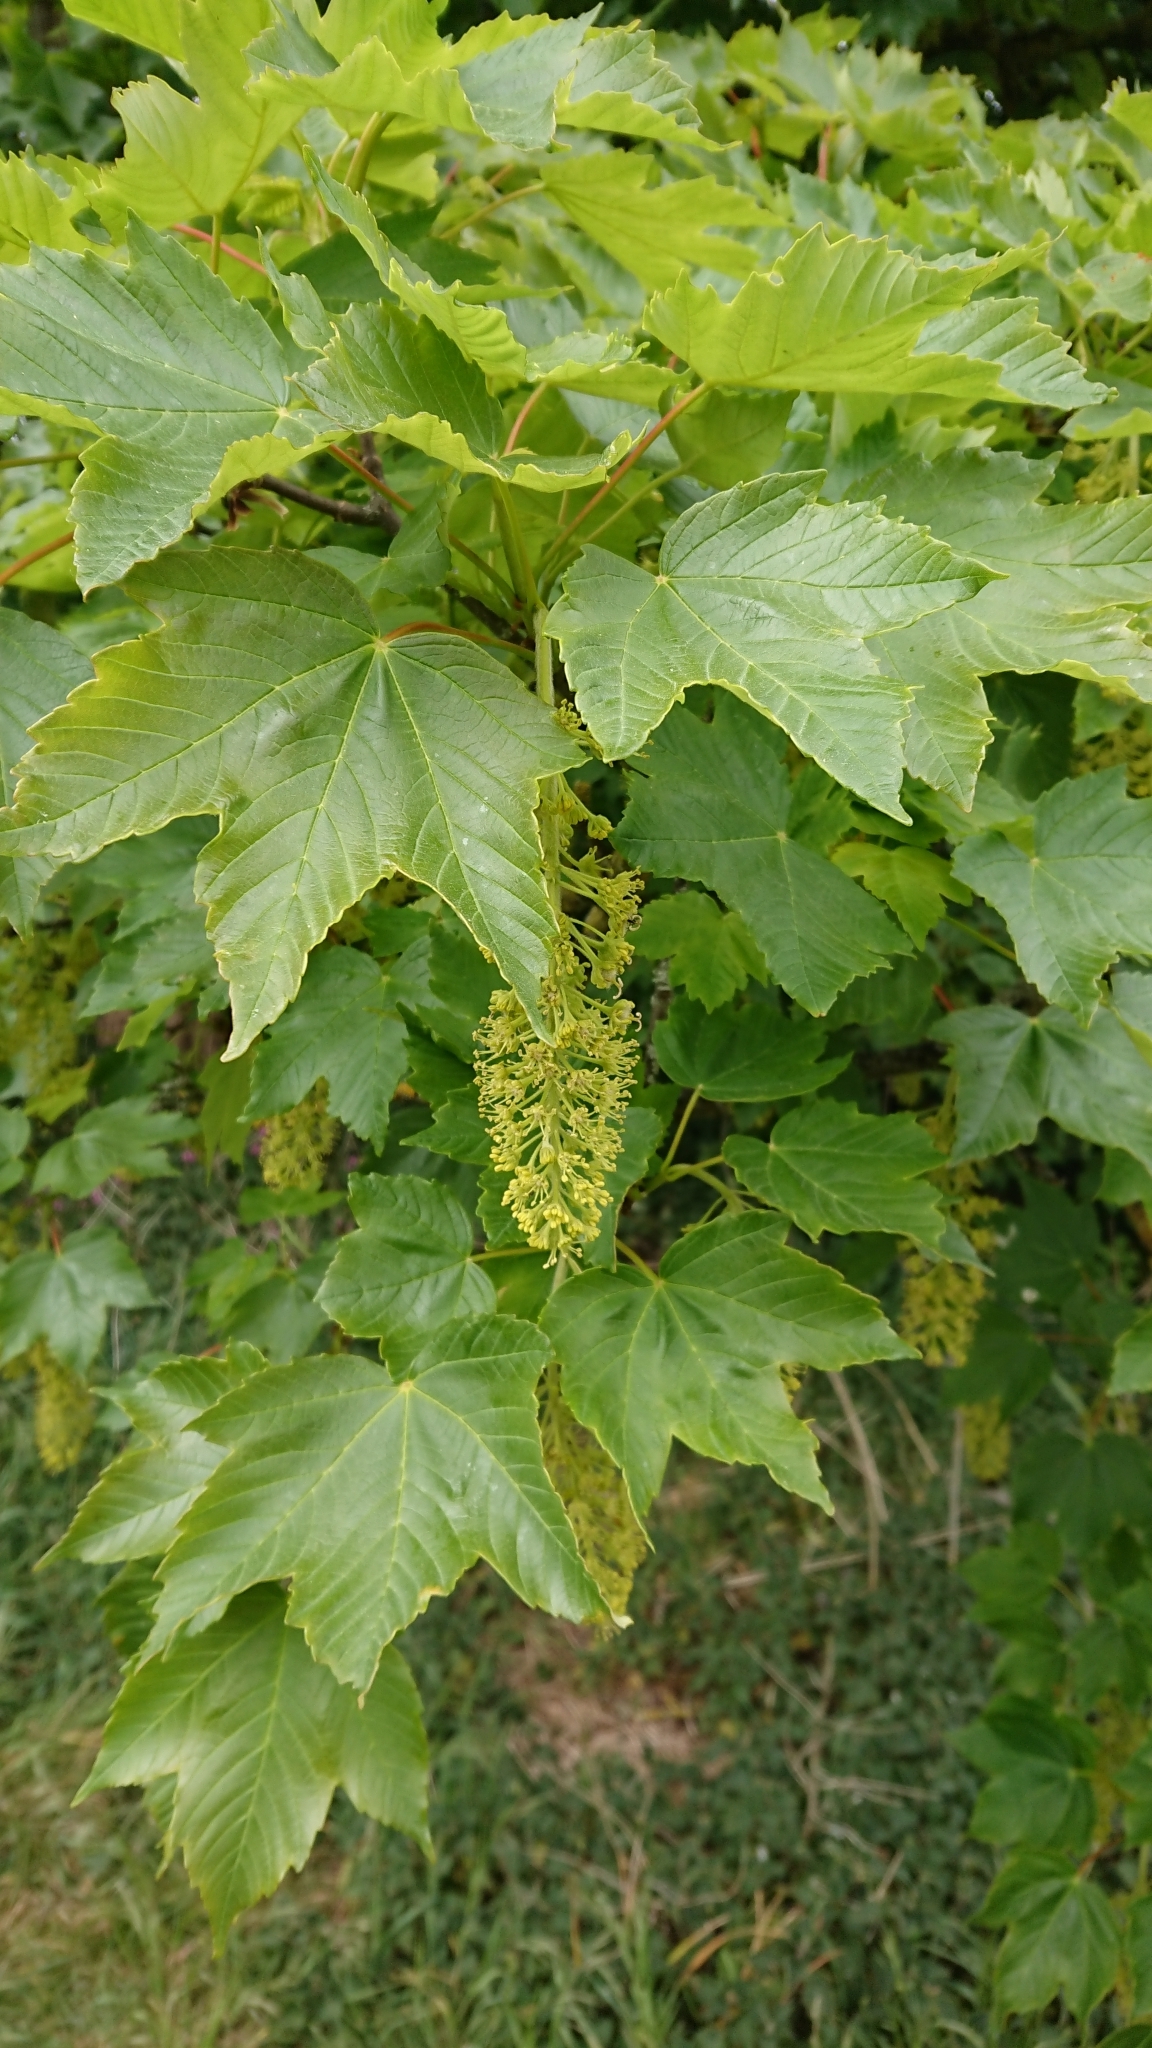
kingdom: Plantae
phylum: Tracheophyta
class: Magnoliopsida
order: Sapindales
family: Sapindaceae
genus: Acer
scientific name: Acer pseudoplatanus
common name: Sycamore
